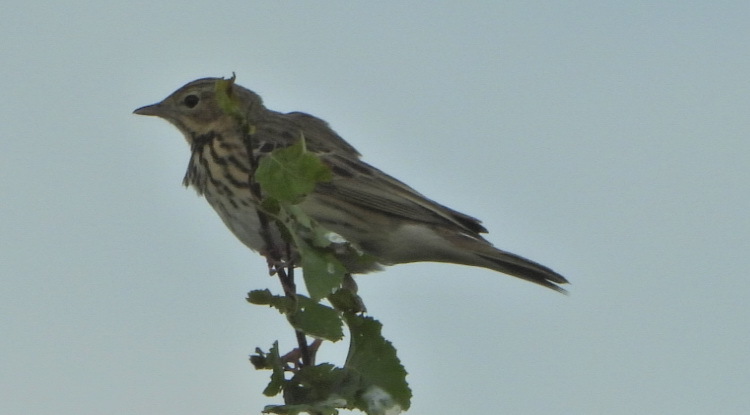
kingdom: Animalia
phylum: Chordata
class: Aves
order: Passeriformes
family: Motacillidae
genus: Anthus
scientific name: Anthus trivialis
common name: Tree pipit
